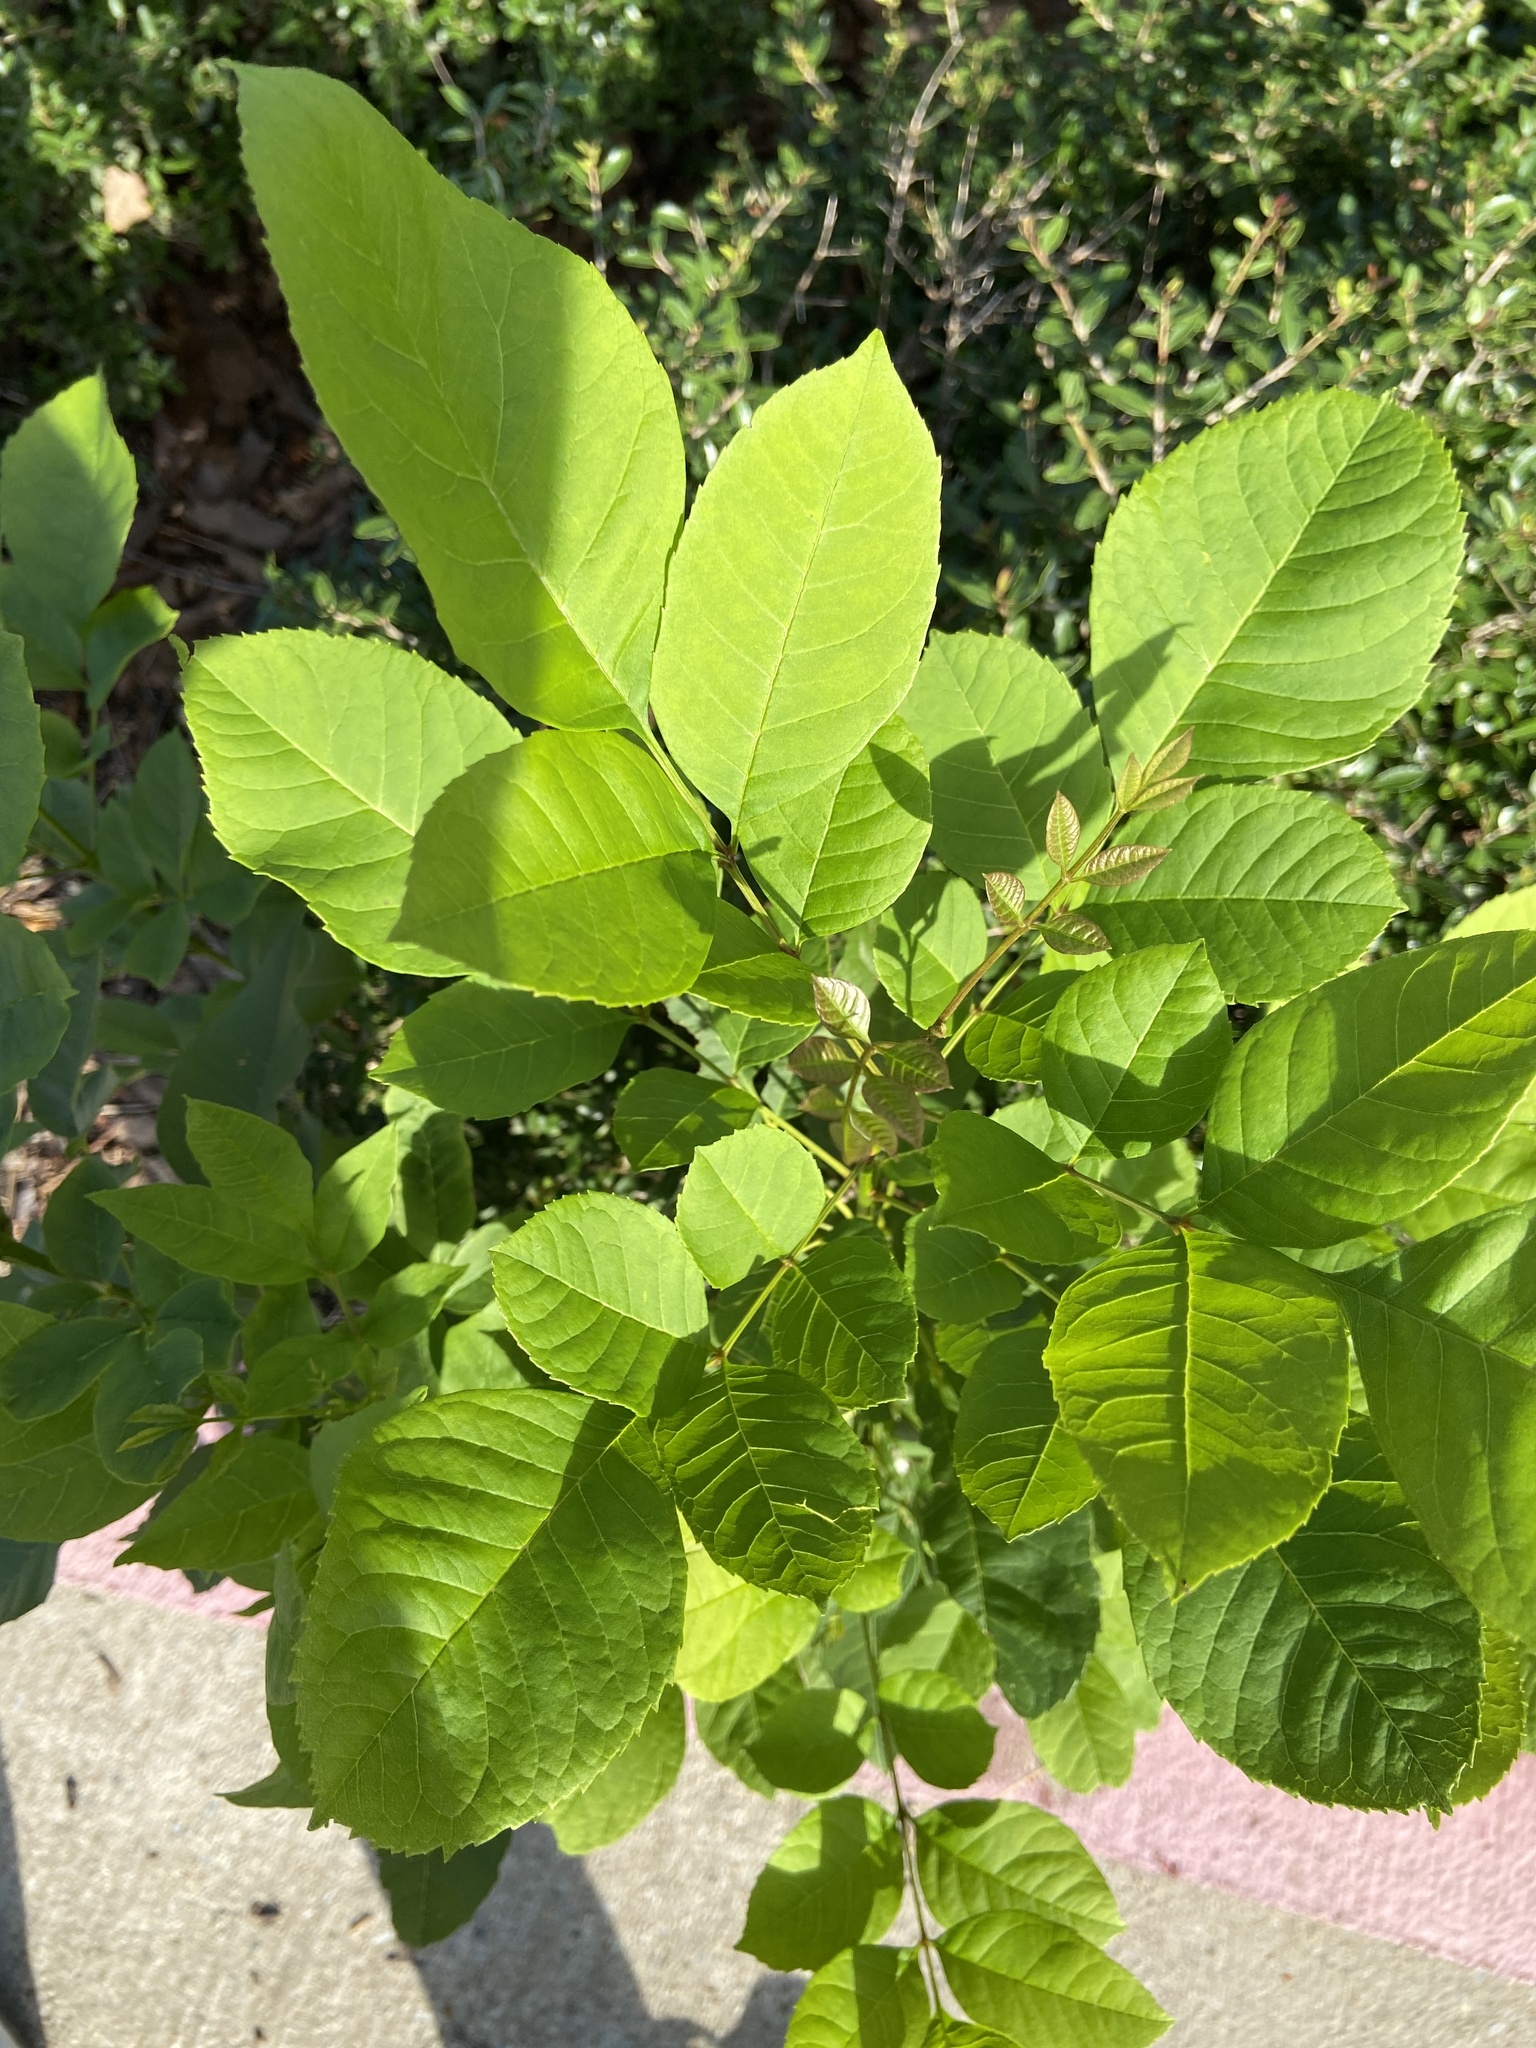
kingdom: Plantae
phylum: Tracheophyta
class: Magnoliopsida
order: Lamiales
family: Oleaceae
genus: Fraxinus
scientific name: Fraxinus albicans
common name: Texas ash
